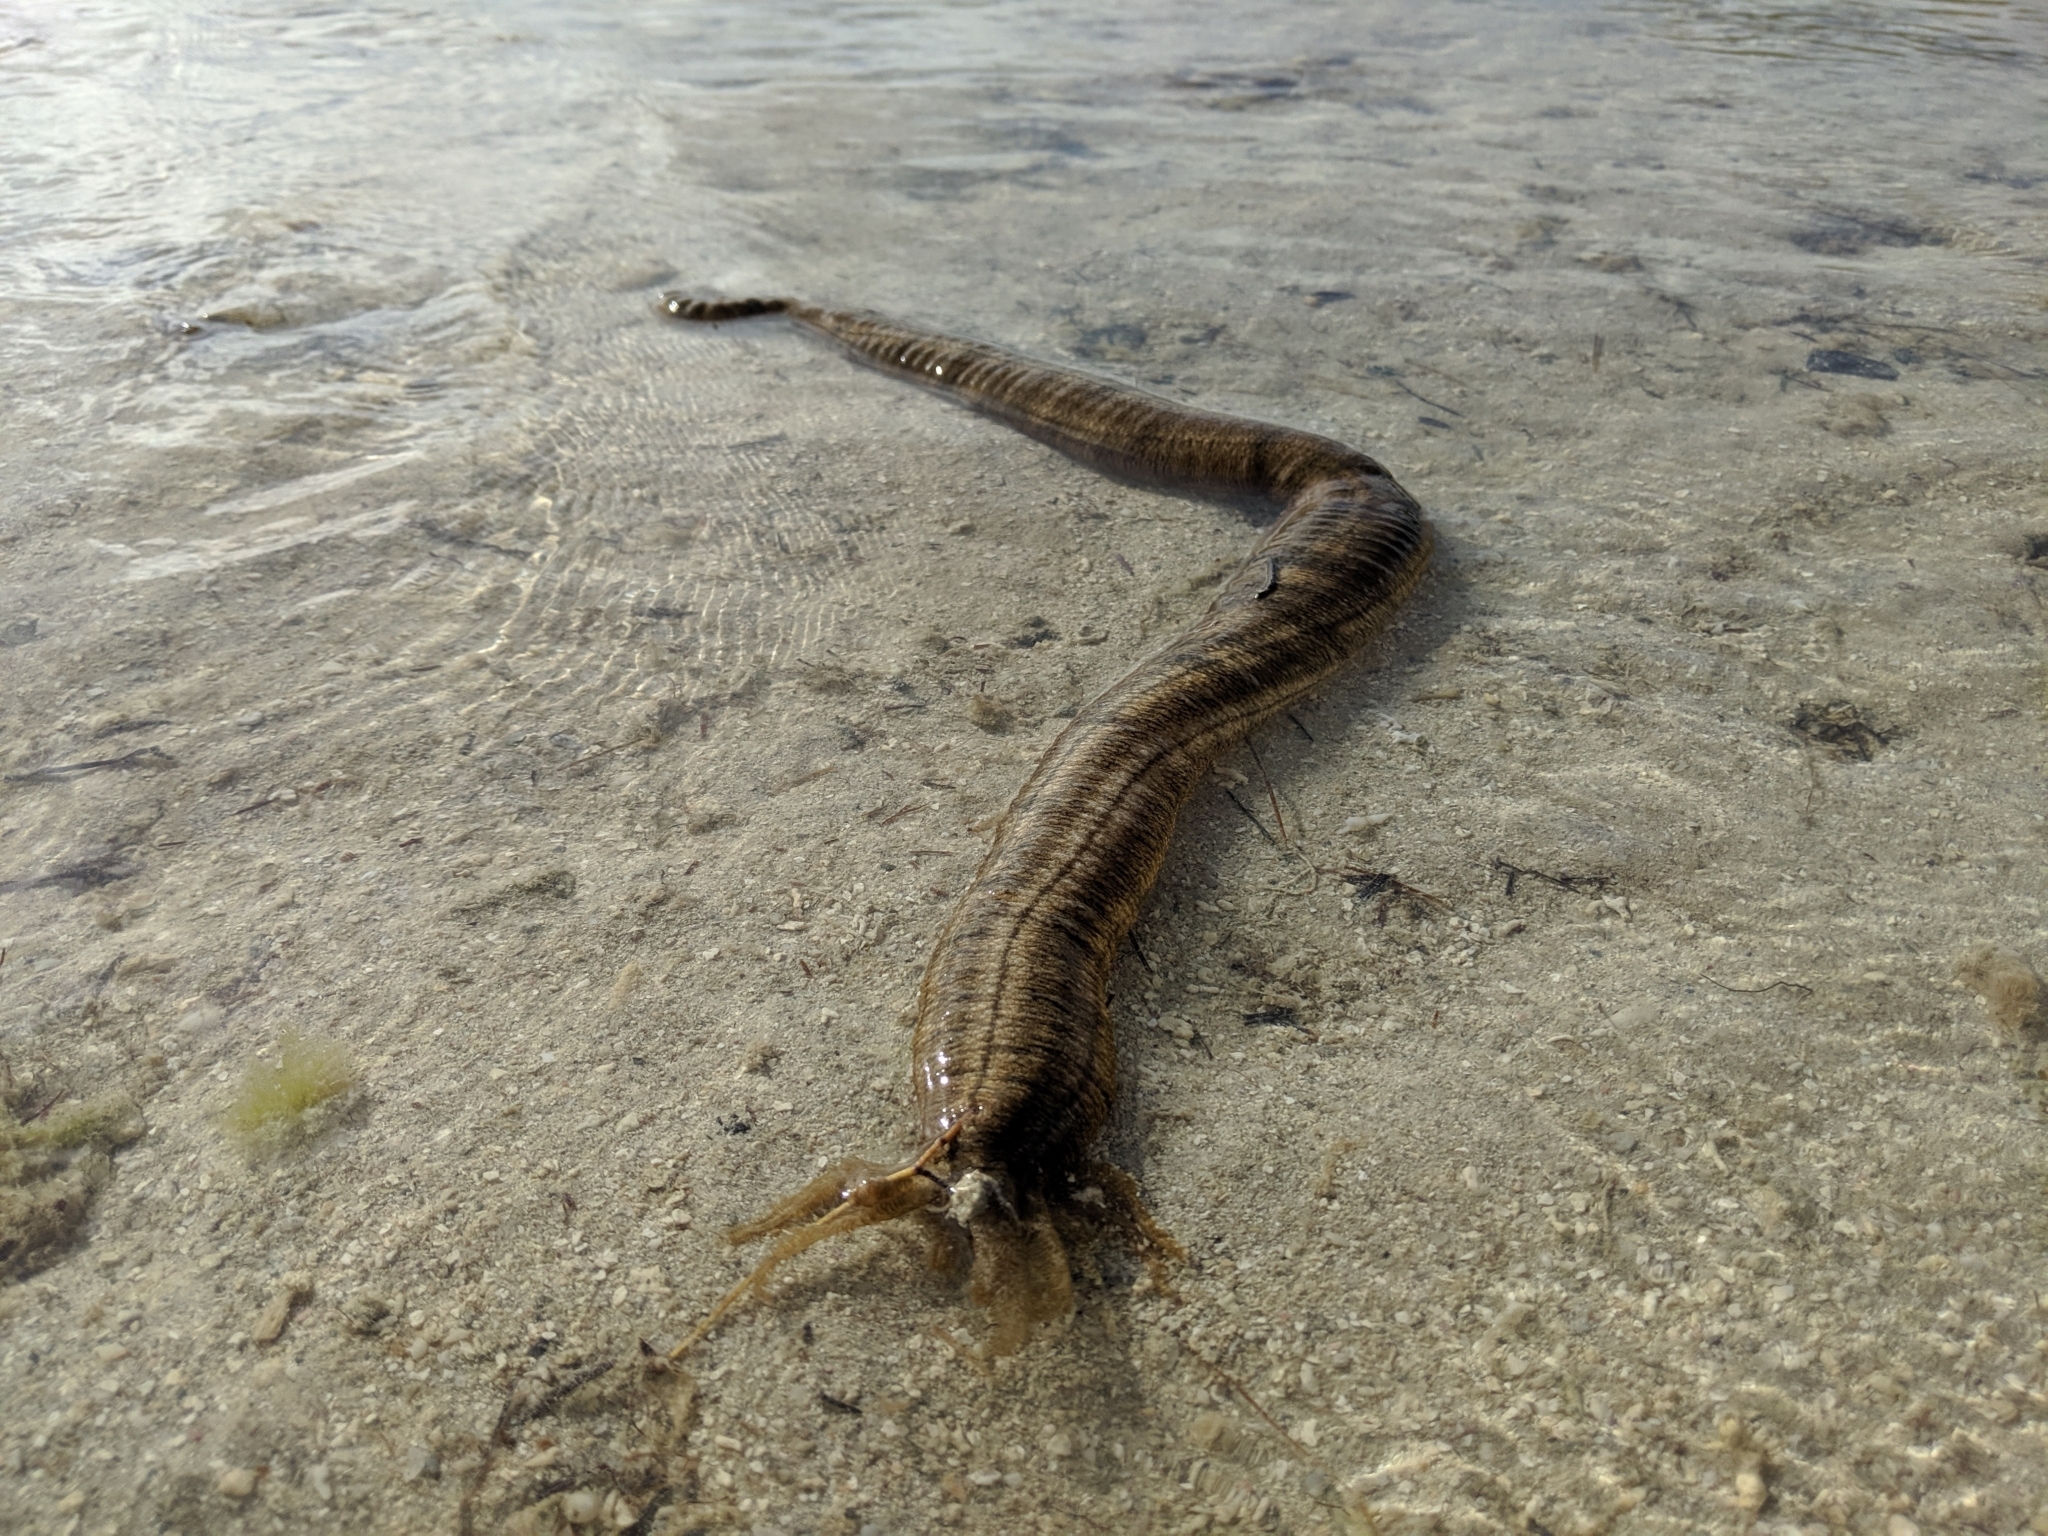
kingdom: Animalia
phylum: Echinodermata
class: Holothuroidea
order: Apodida
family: Synaptidae
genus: Euapta
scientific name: Euapta godeffroyi
